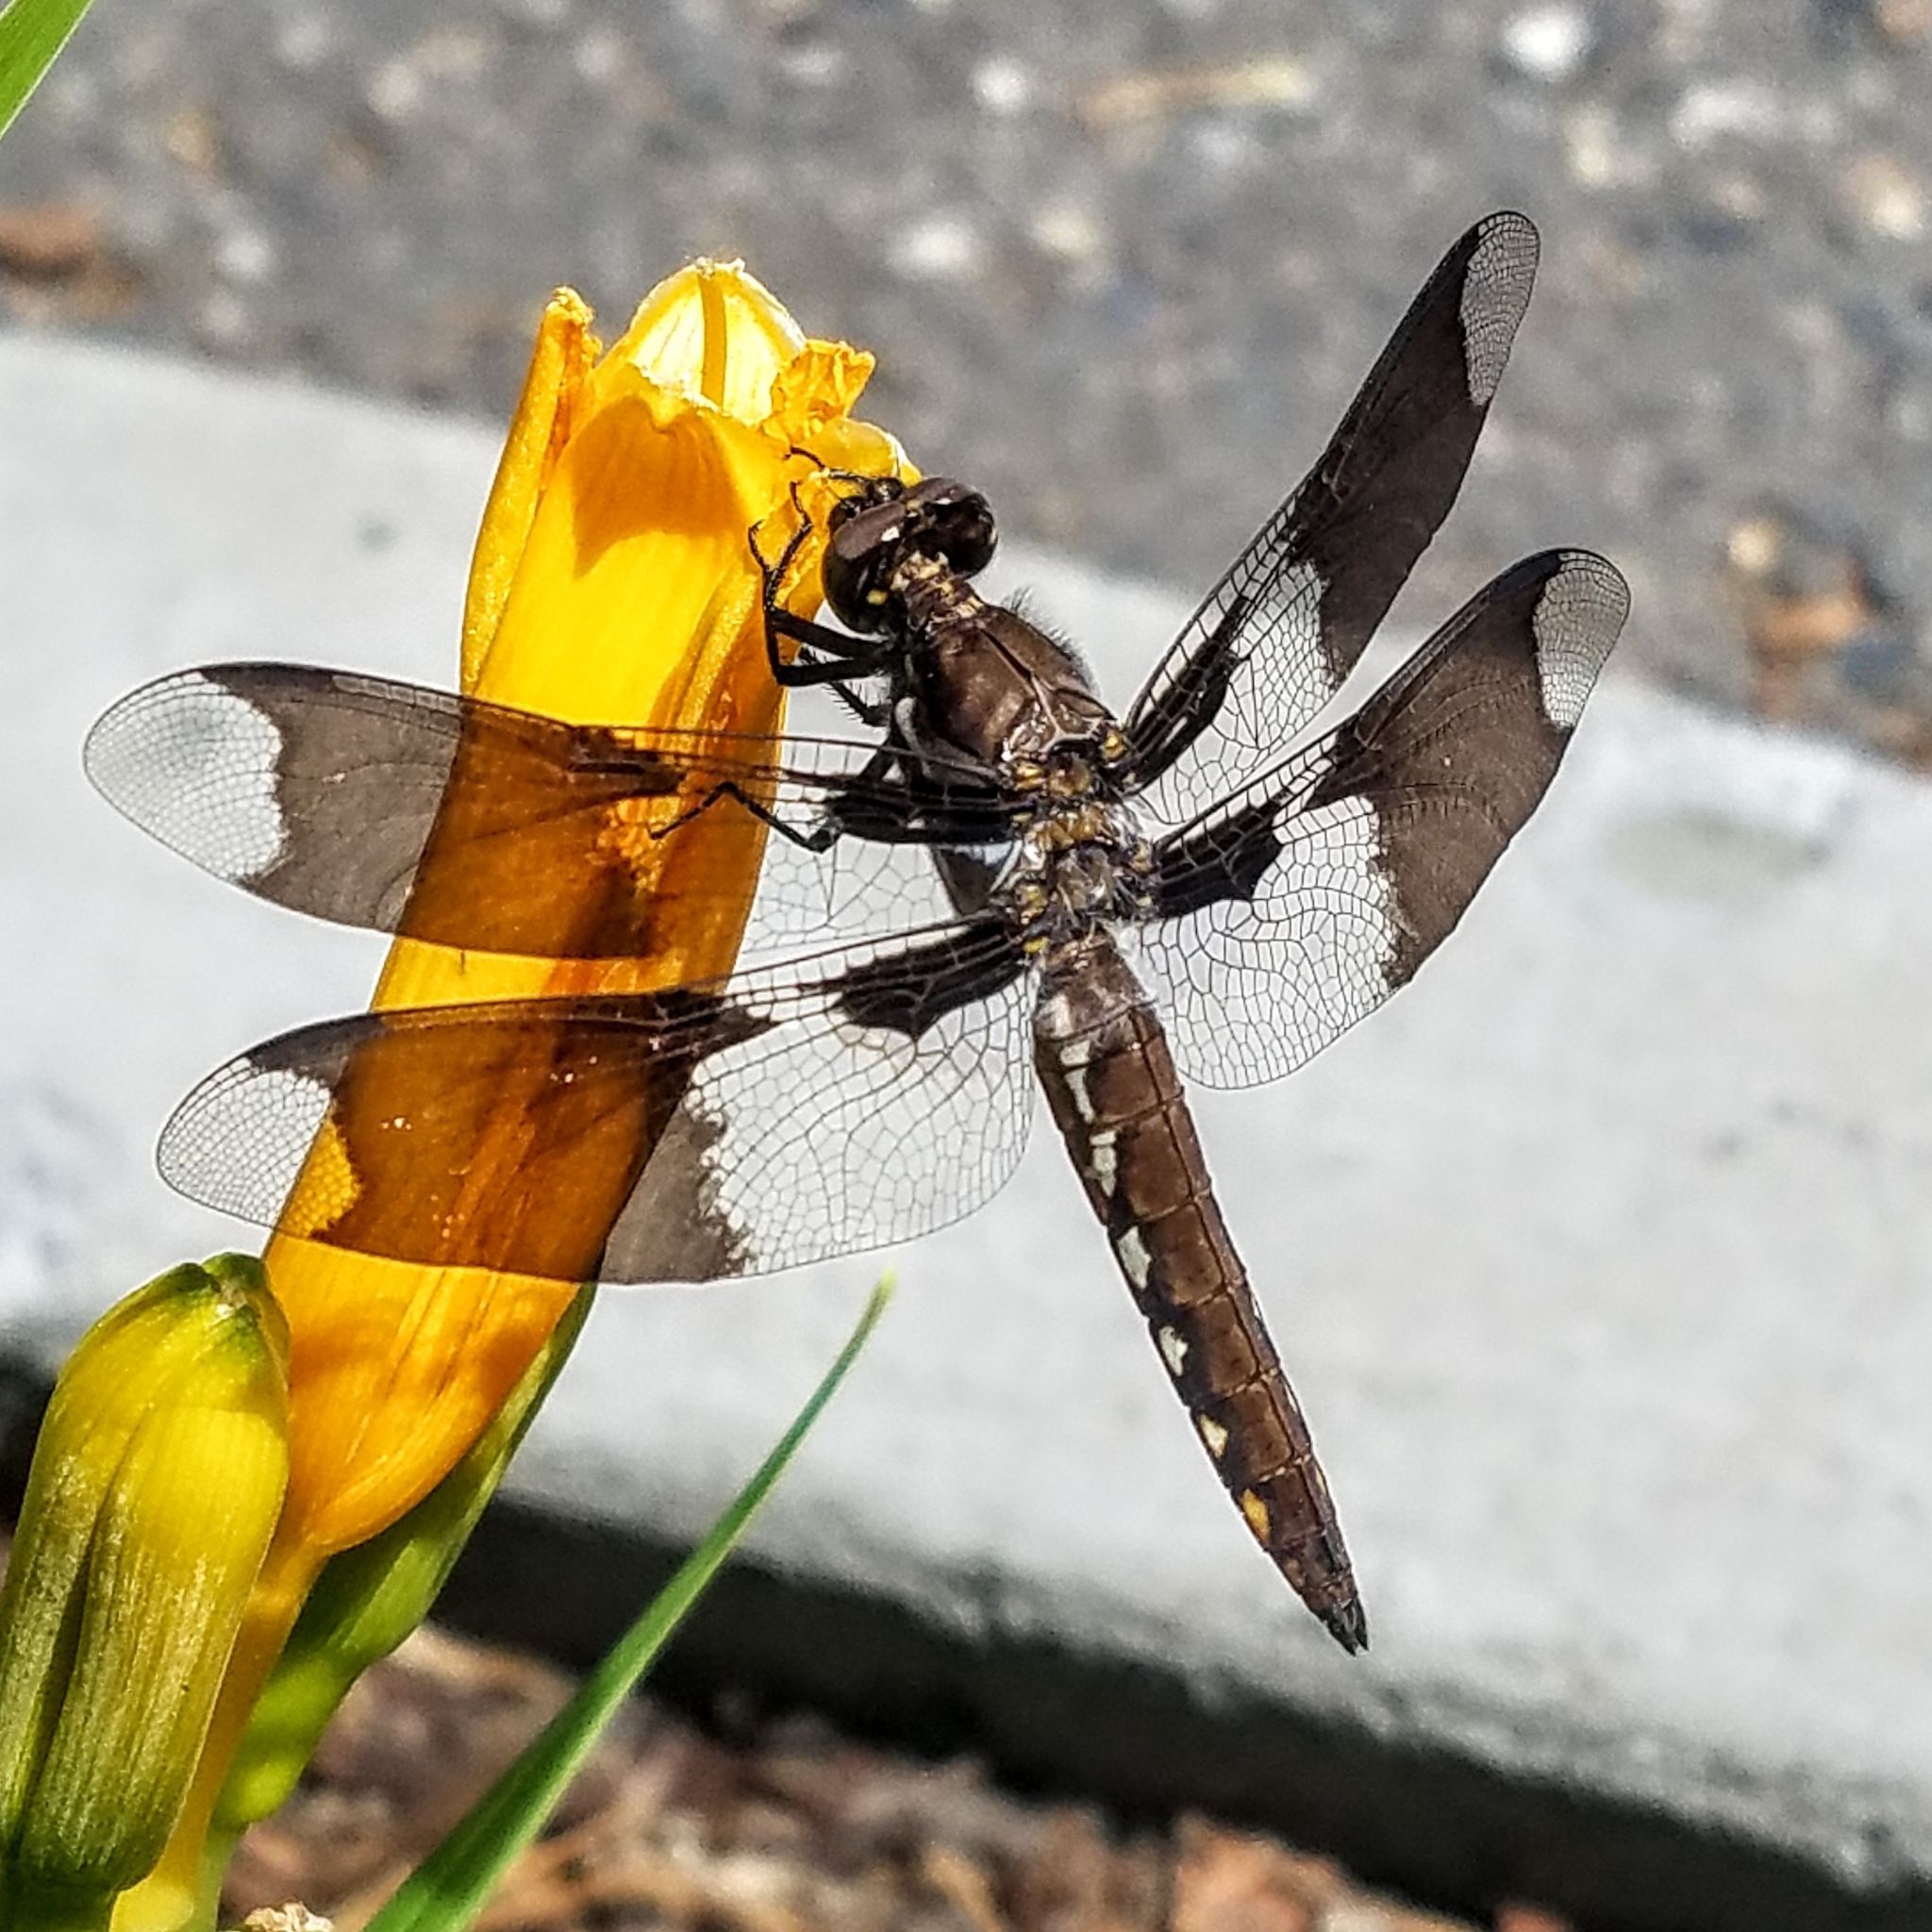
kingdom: Animalia
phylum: Arthropoda
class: Insecta
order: Odonata
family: Libellulidae
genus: Plathemis
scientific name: Plathemis lydia
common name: Common whitetail
